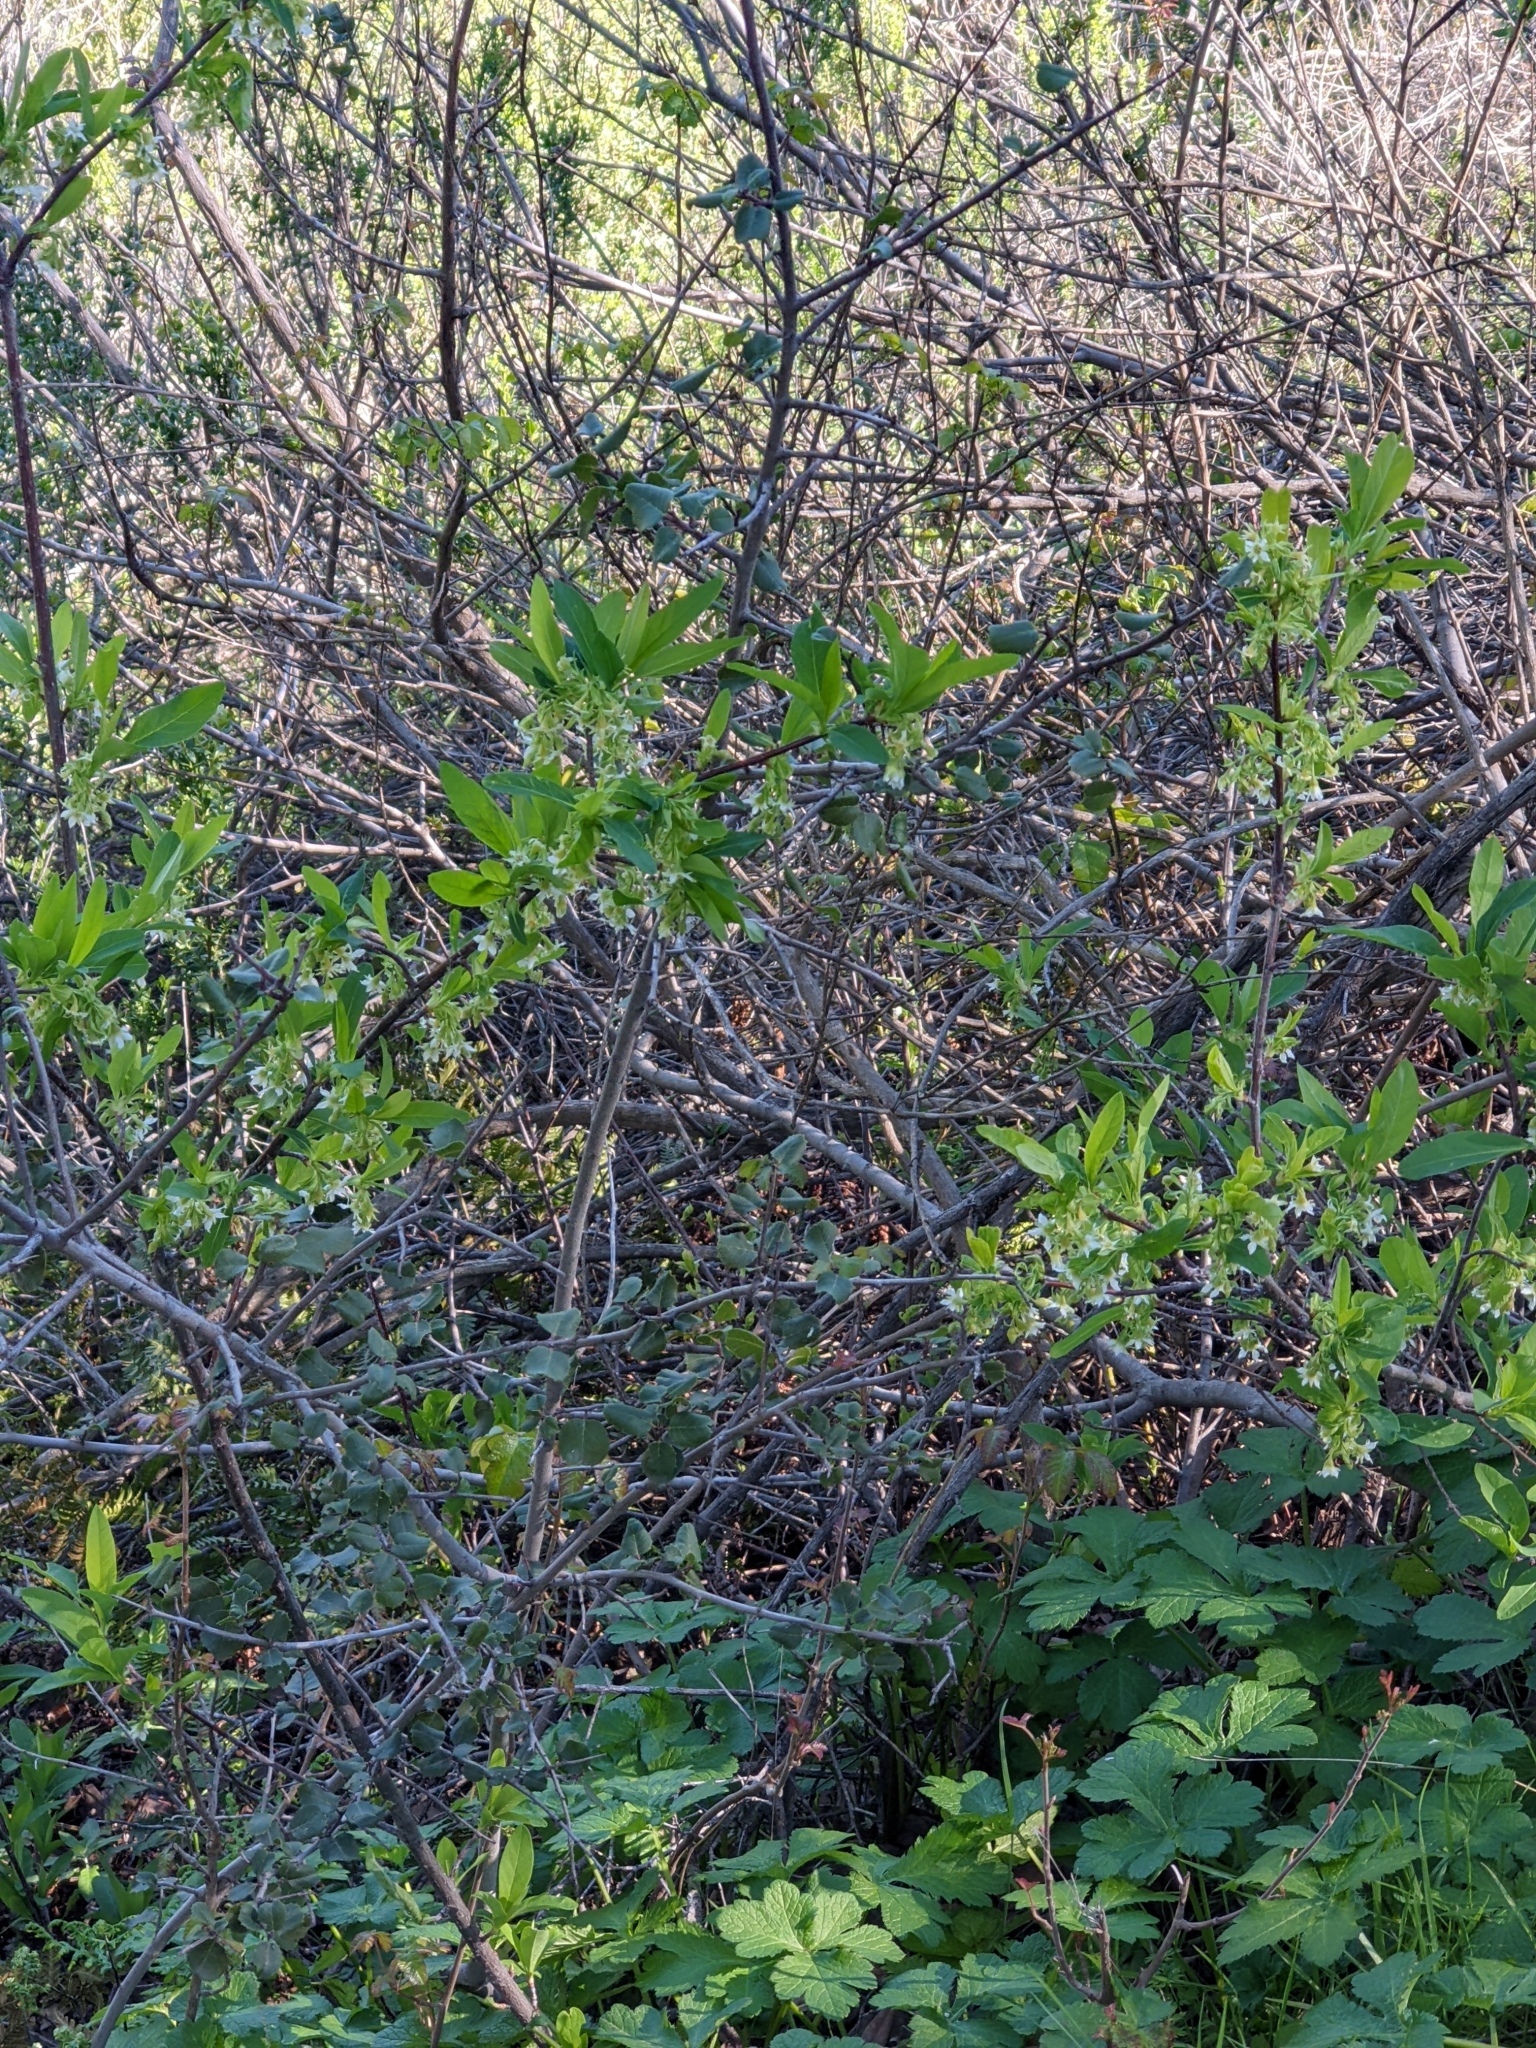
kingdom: Plantae
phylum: Tracheophyta
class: Magnoliopsida
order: Rosales
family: Rosaceae
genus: Oemleria
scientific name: Oemleria cerasiformis
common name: Osoberry
